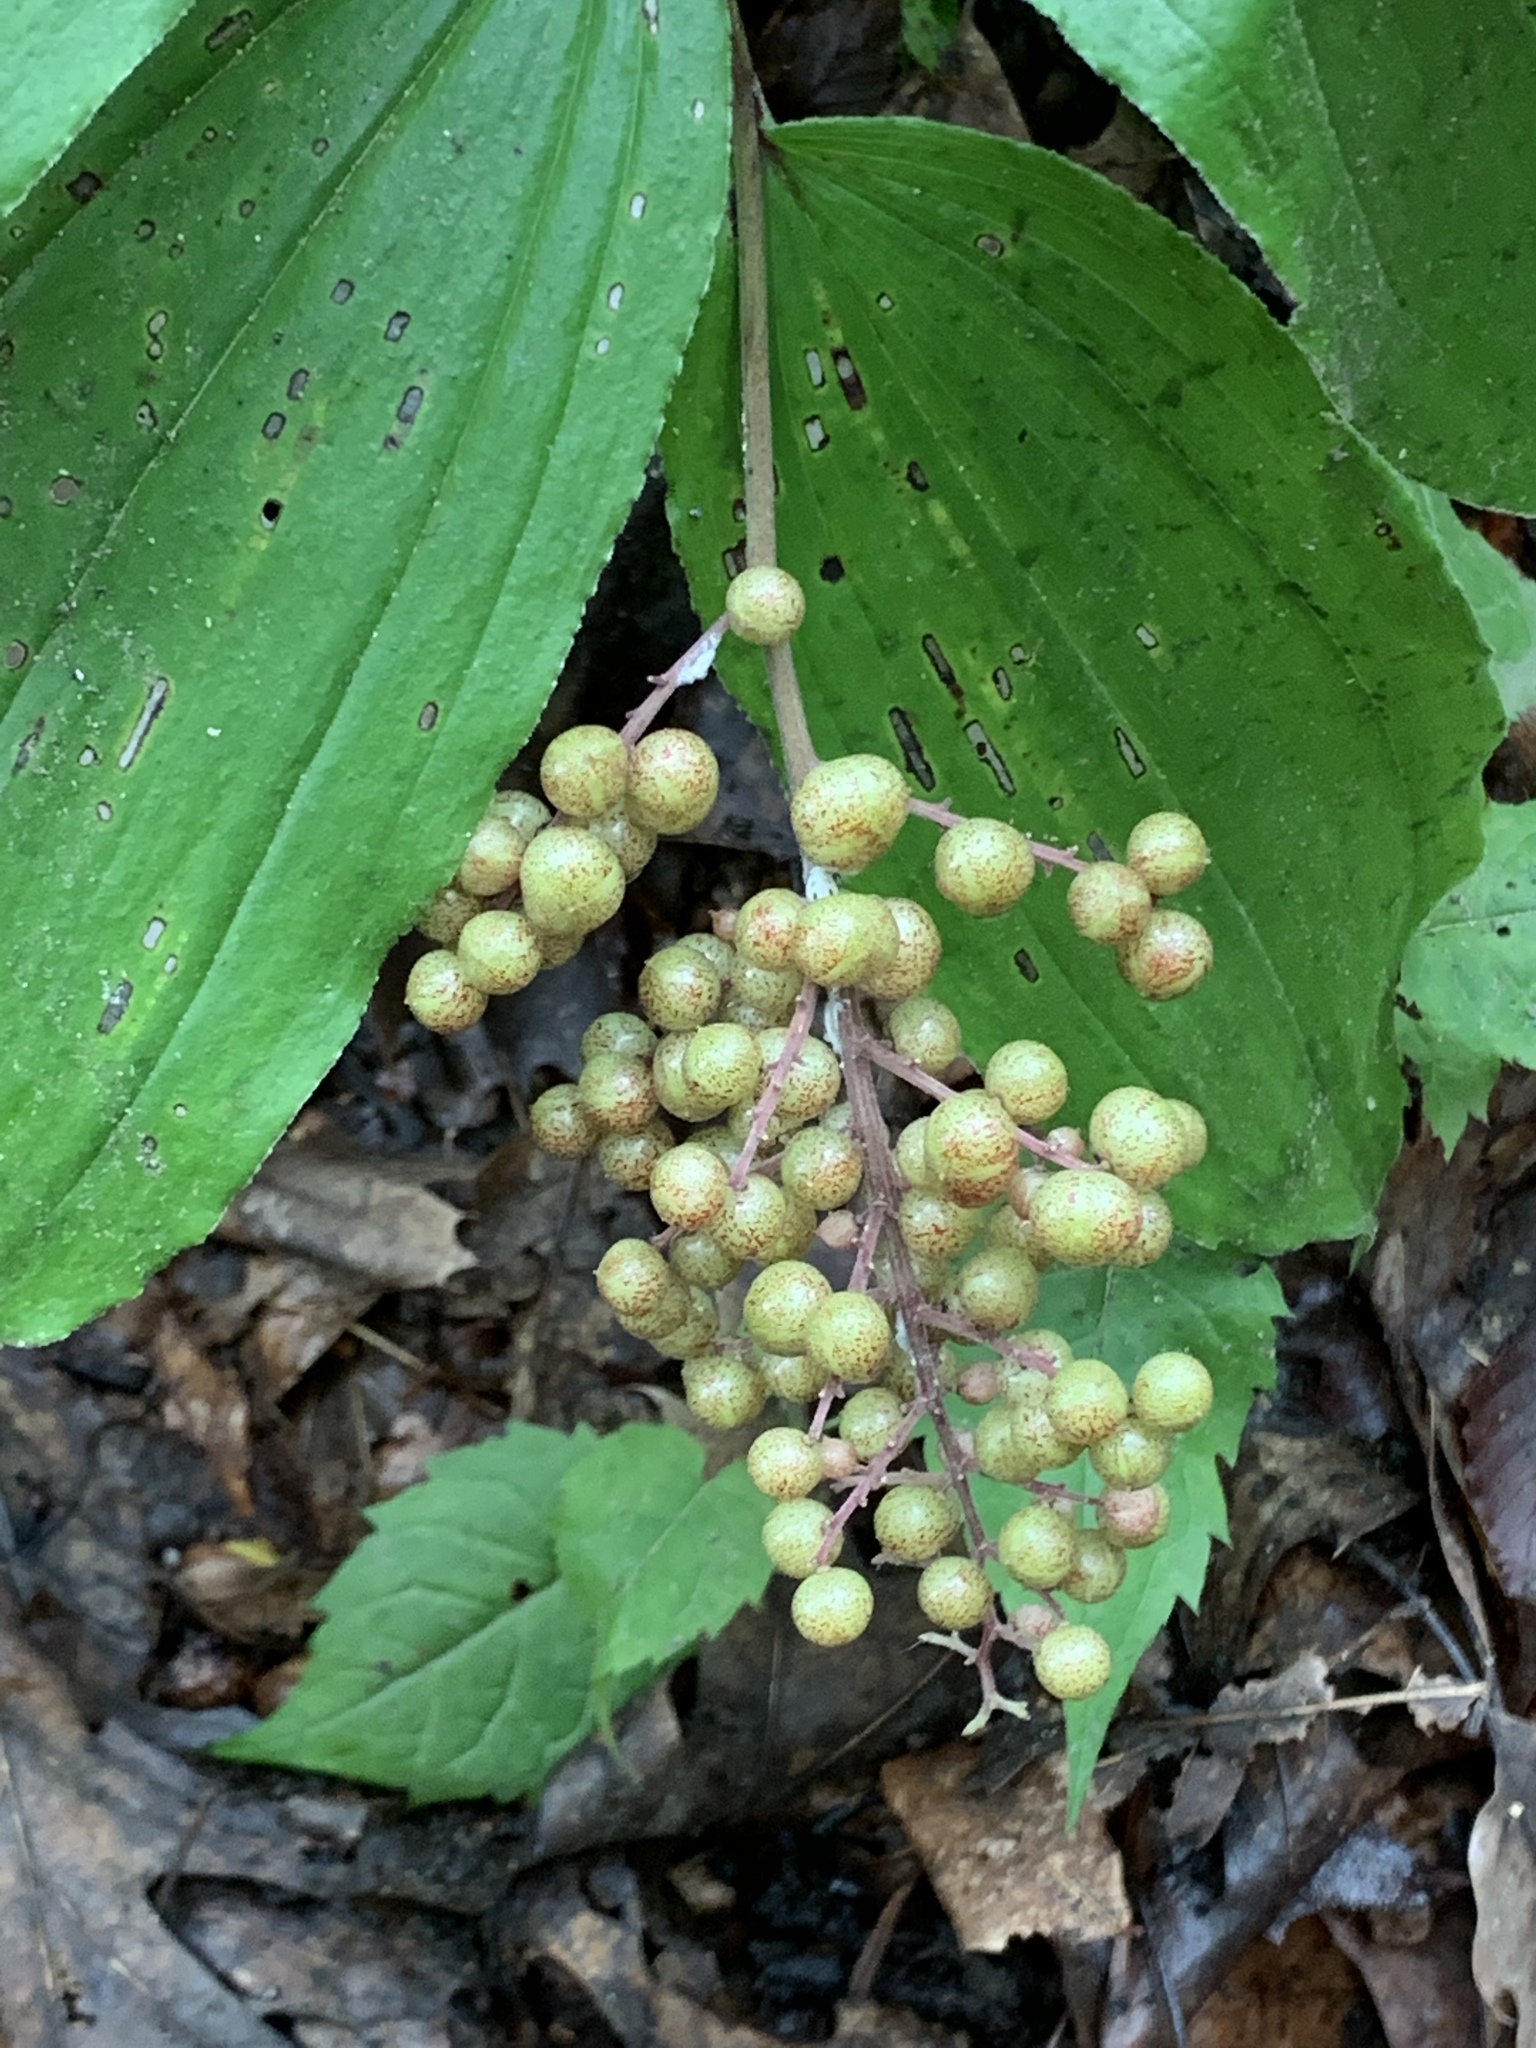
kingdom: Plantae
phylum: Tracheophyta
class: Liliopsida
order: Asparagales
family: Asparagaceae
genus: Maianthemum
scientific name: Maianthemum racemosum
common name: False spikenard
